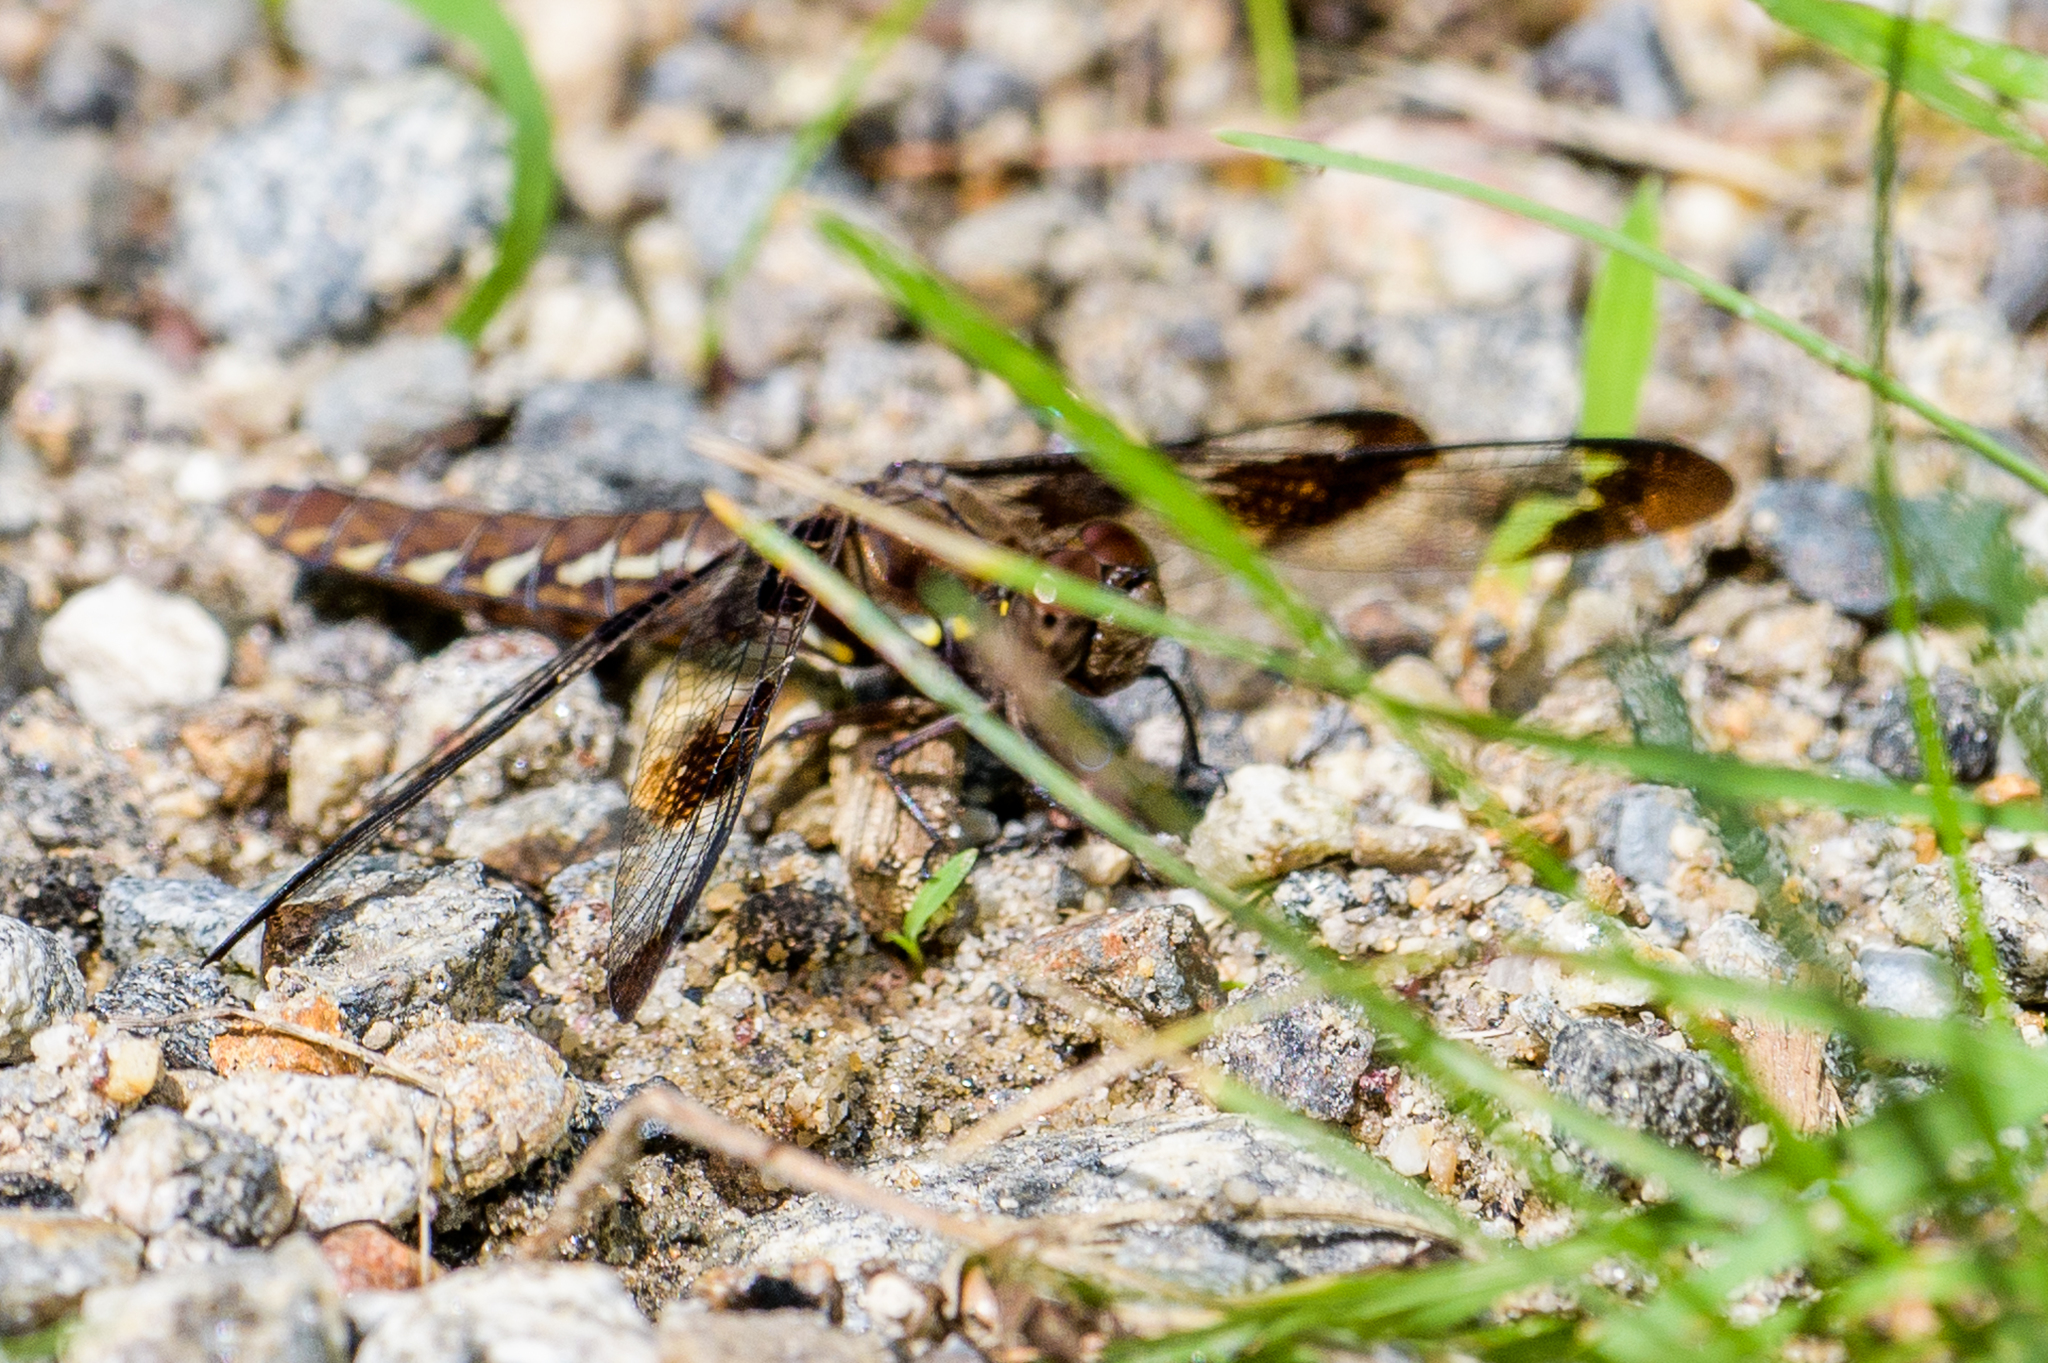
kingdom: Animalia
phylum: Arthropoda
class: Insecta
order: Odonata
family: Libellulidae
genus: Plathemis
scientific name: Plathemis lydia
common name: Common whitetail
